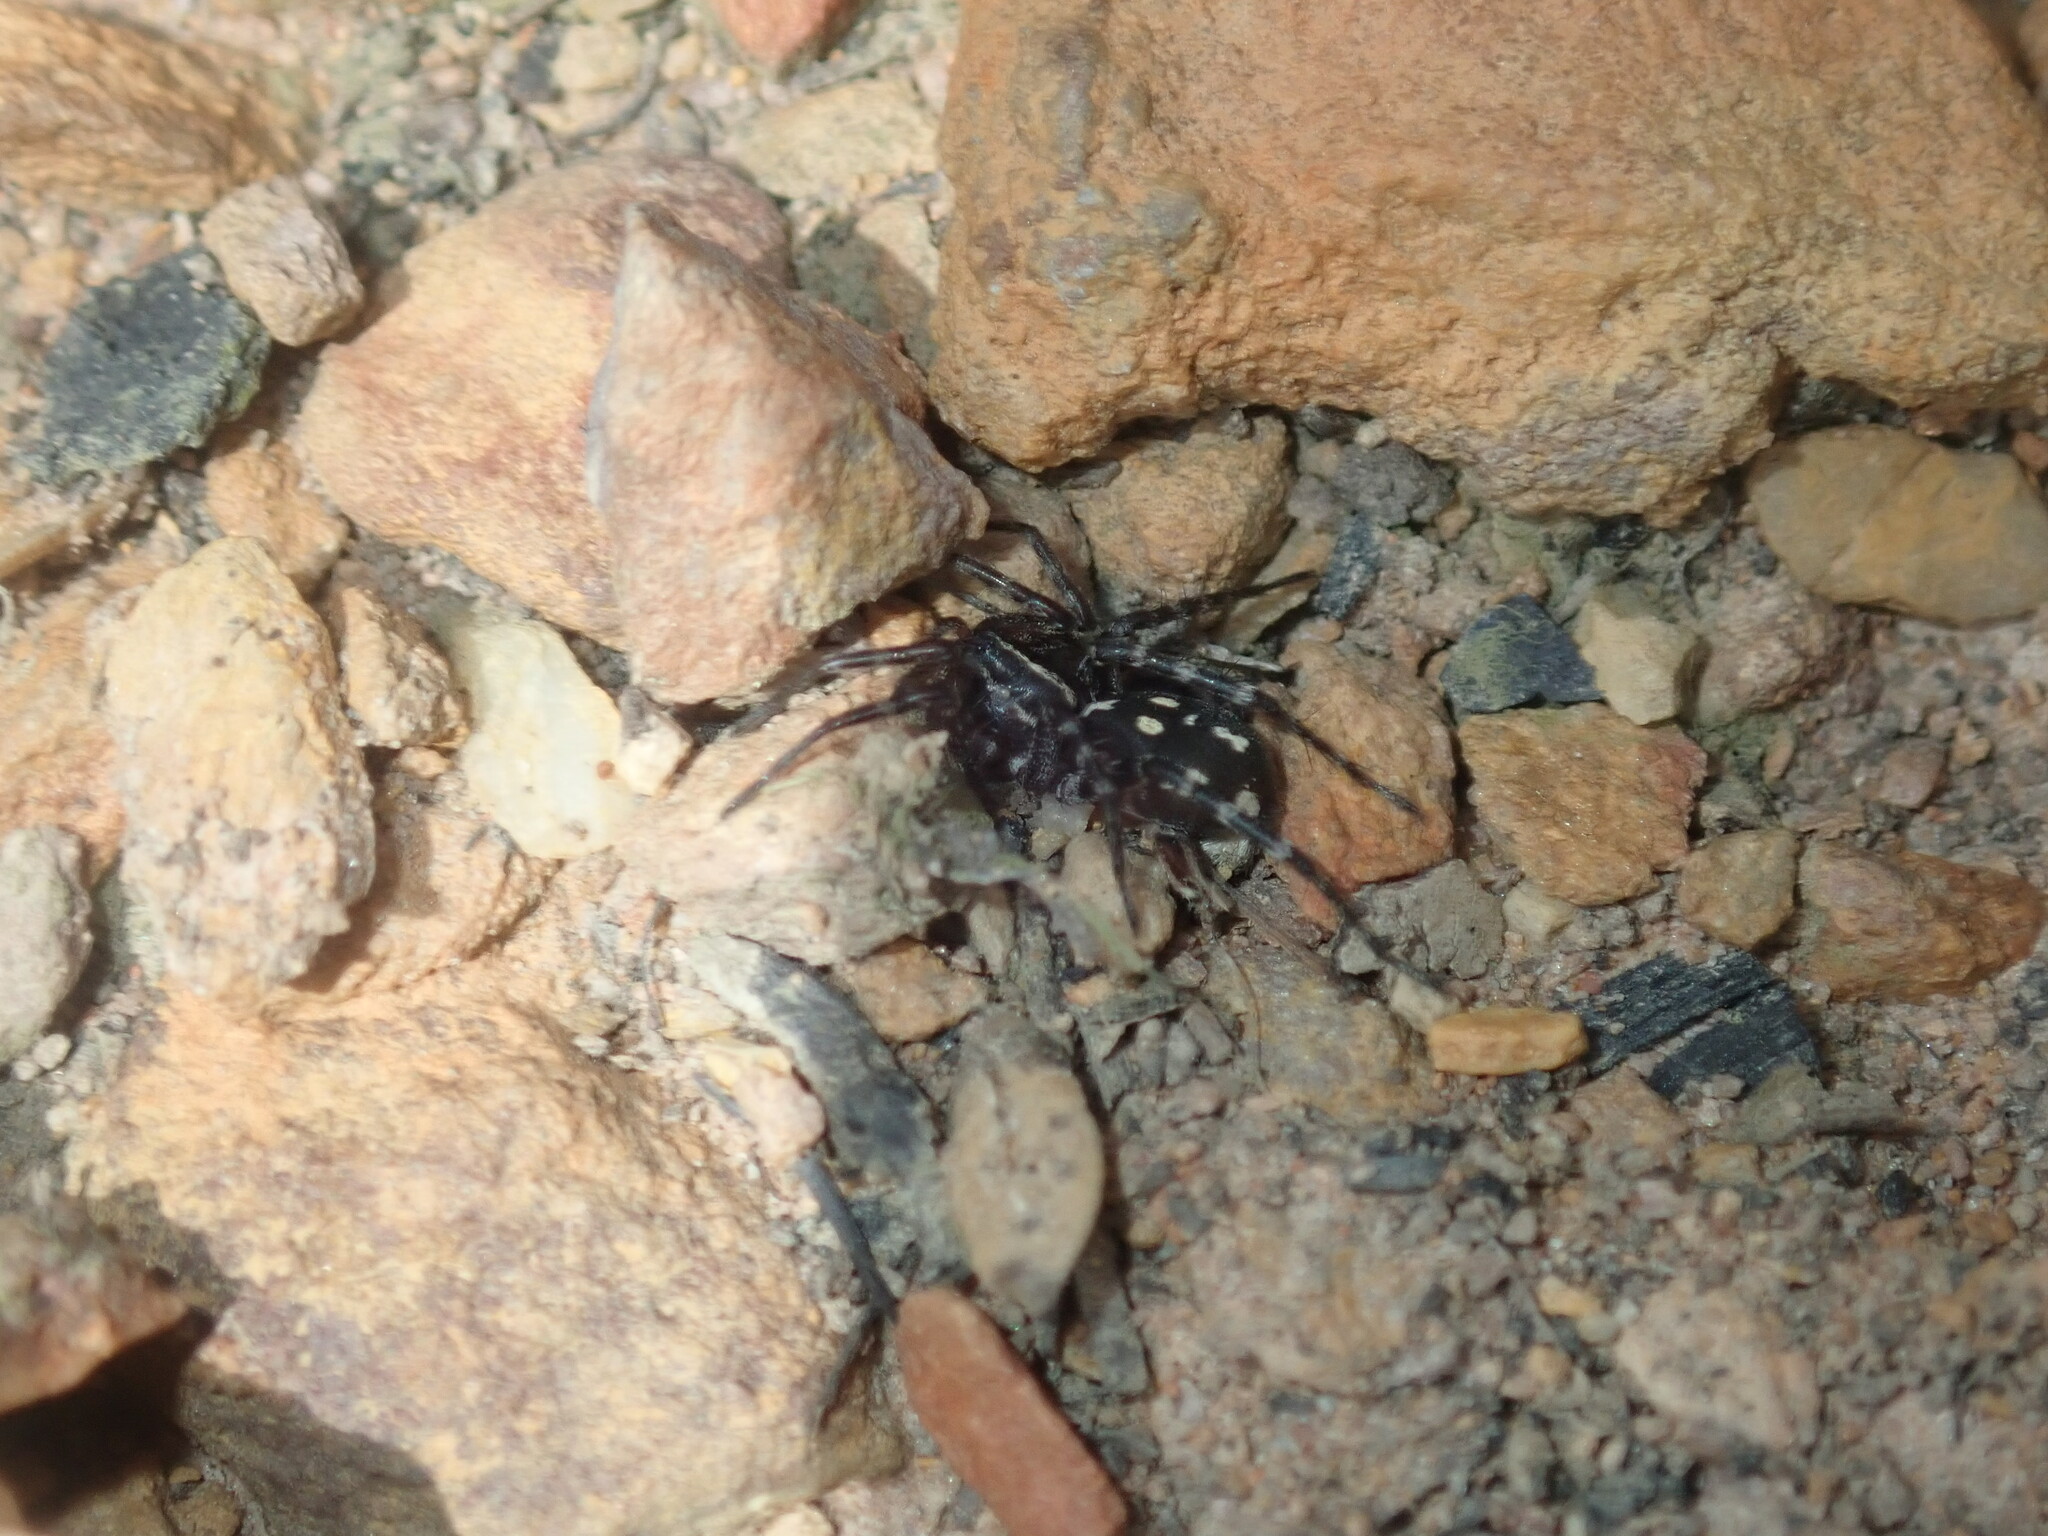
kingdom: Animalia
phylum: Arthropoda
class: Arachnida
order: Araneae
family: Corinnidae
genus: Nyssus
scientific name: Nyssus coloripes
